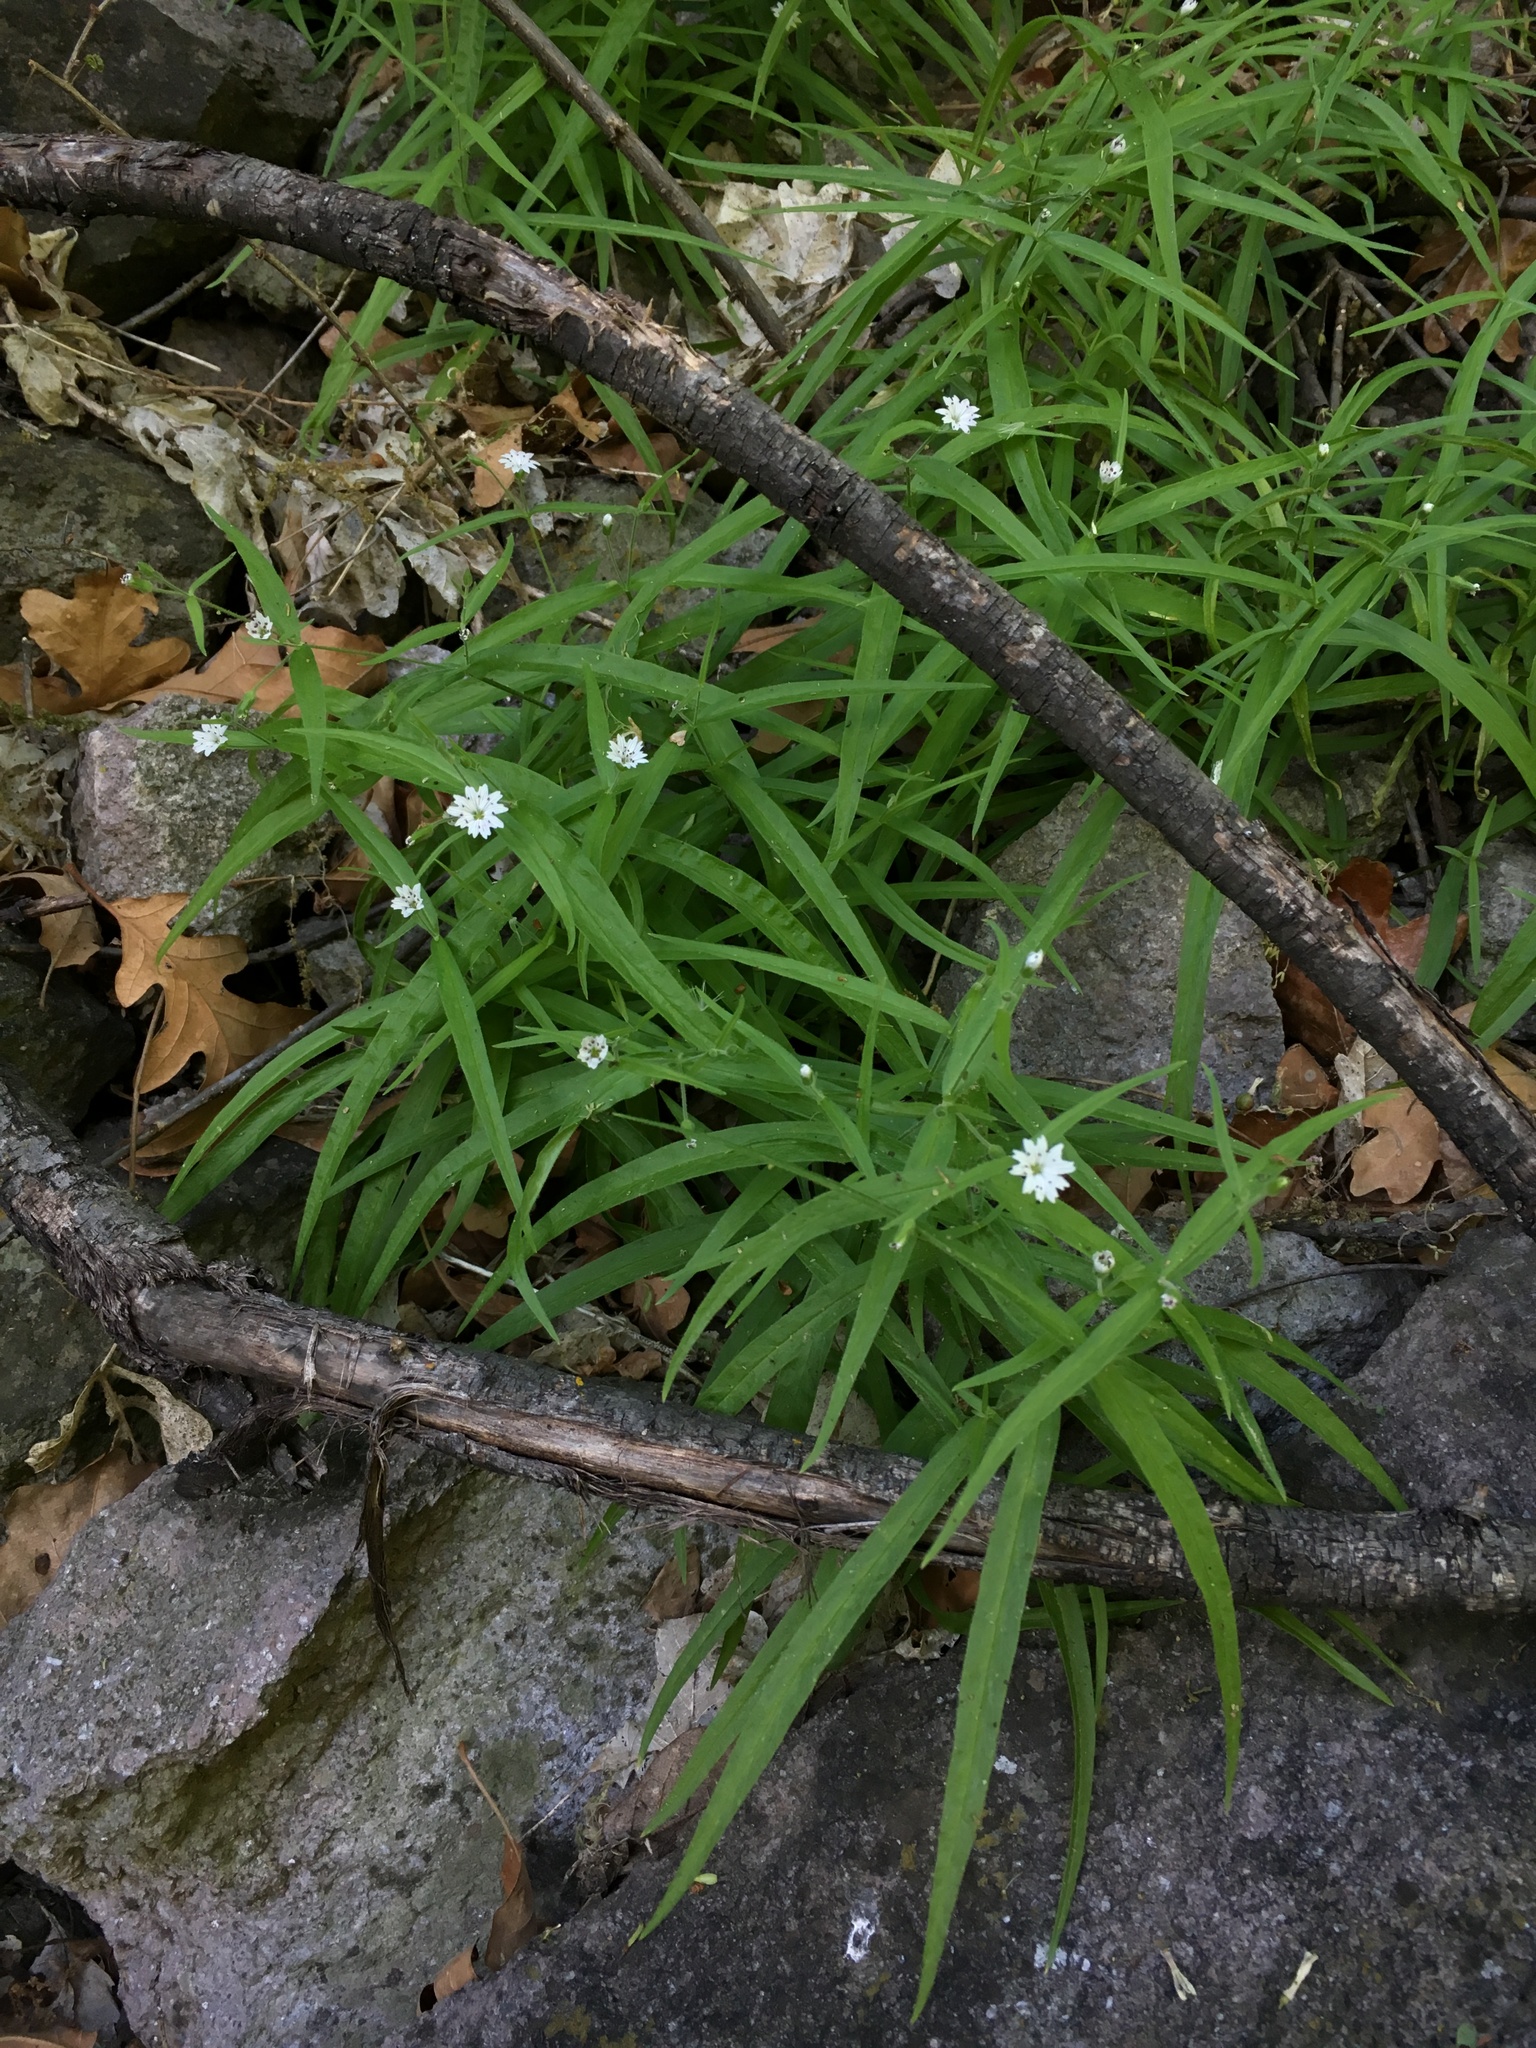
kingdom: Plantae
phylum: Tracheophyta
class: Magnoliopsida
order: Caryophyllales
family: Caryophyllaceae
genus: Schizotechium
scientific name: Schizotechium jamesianum
